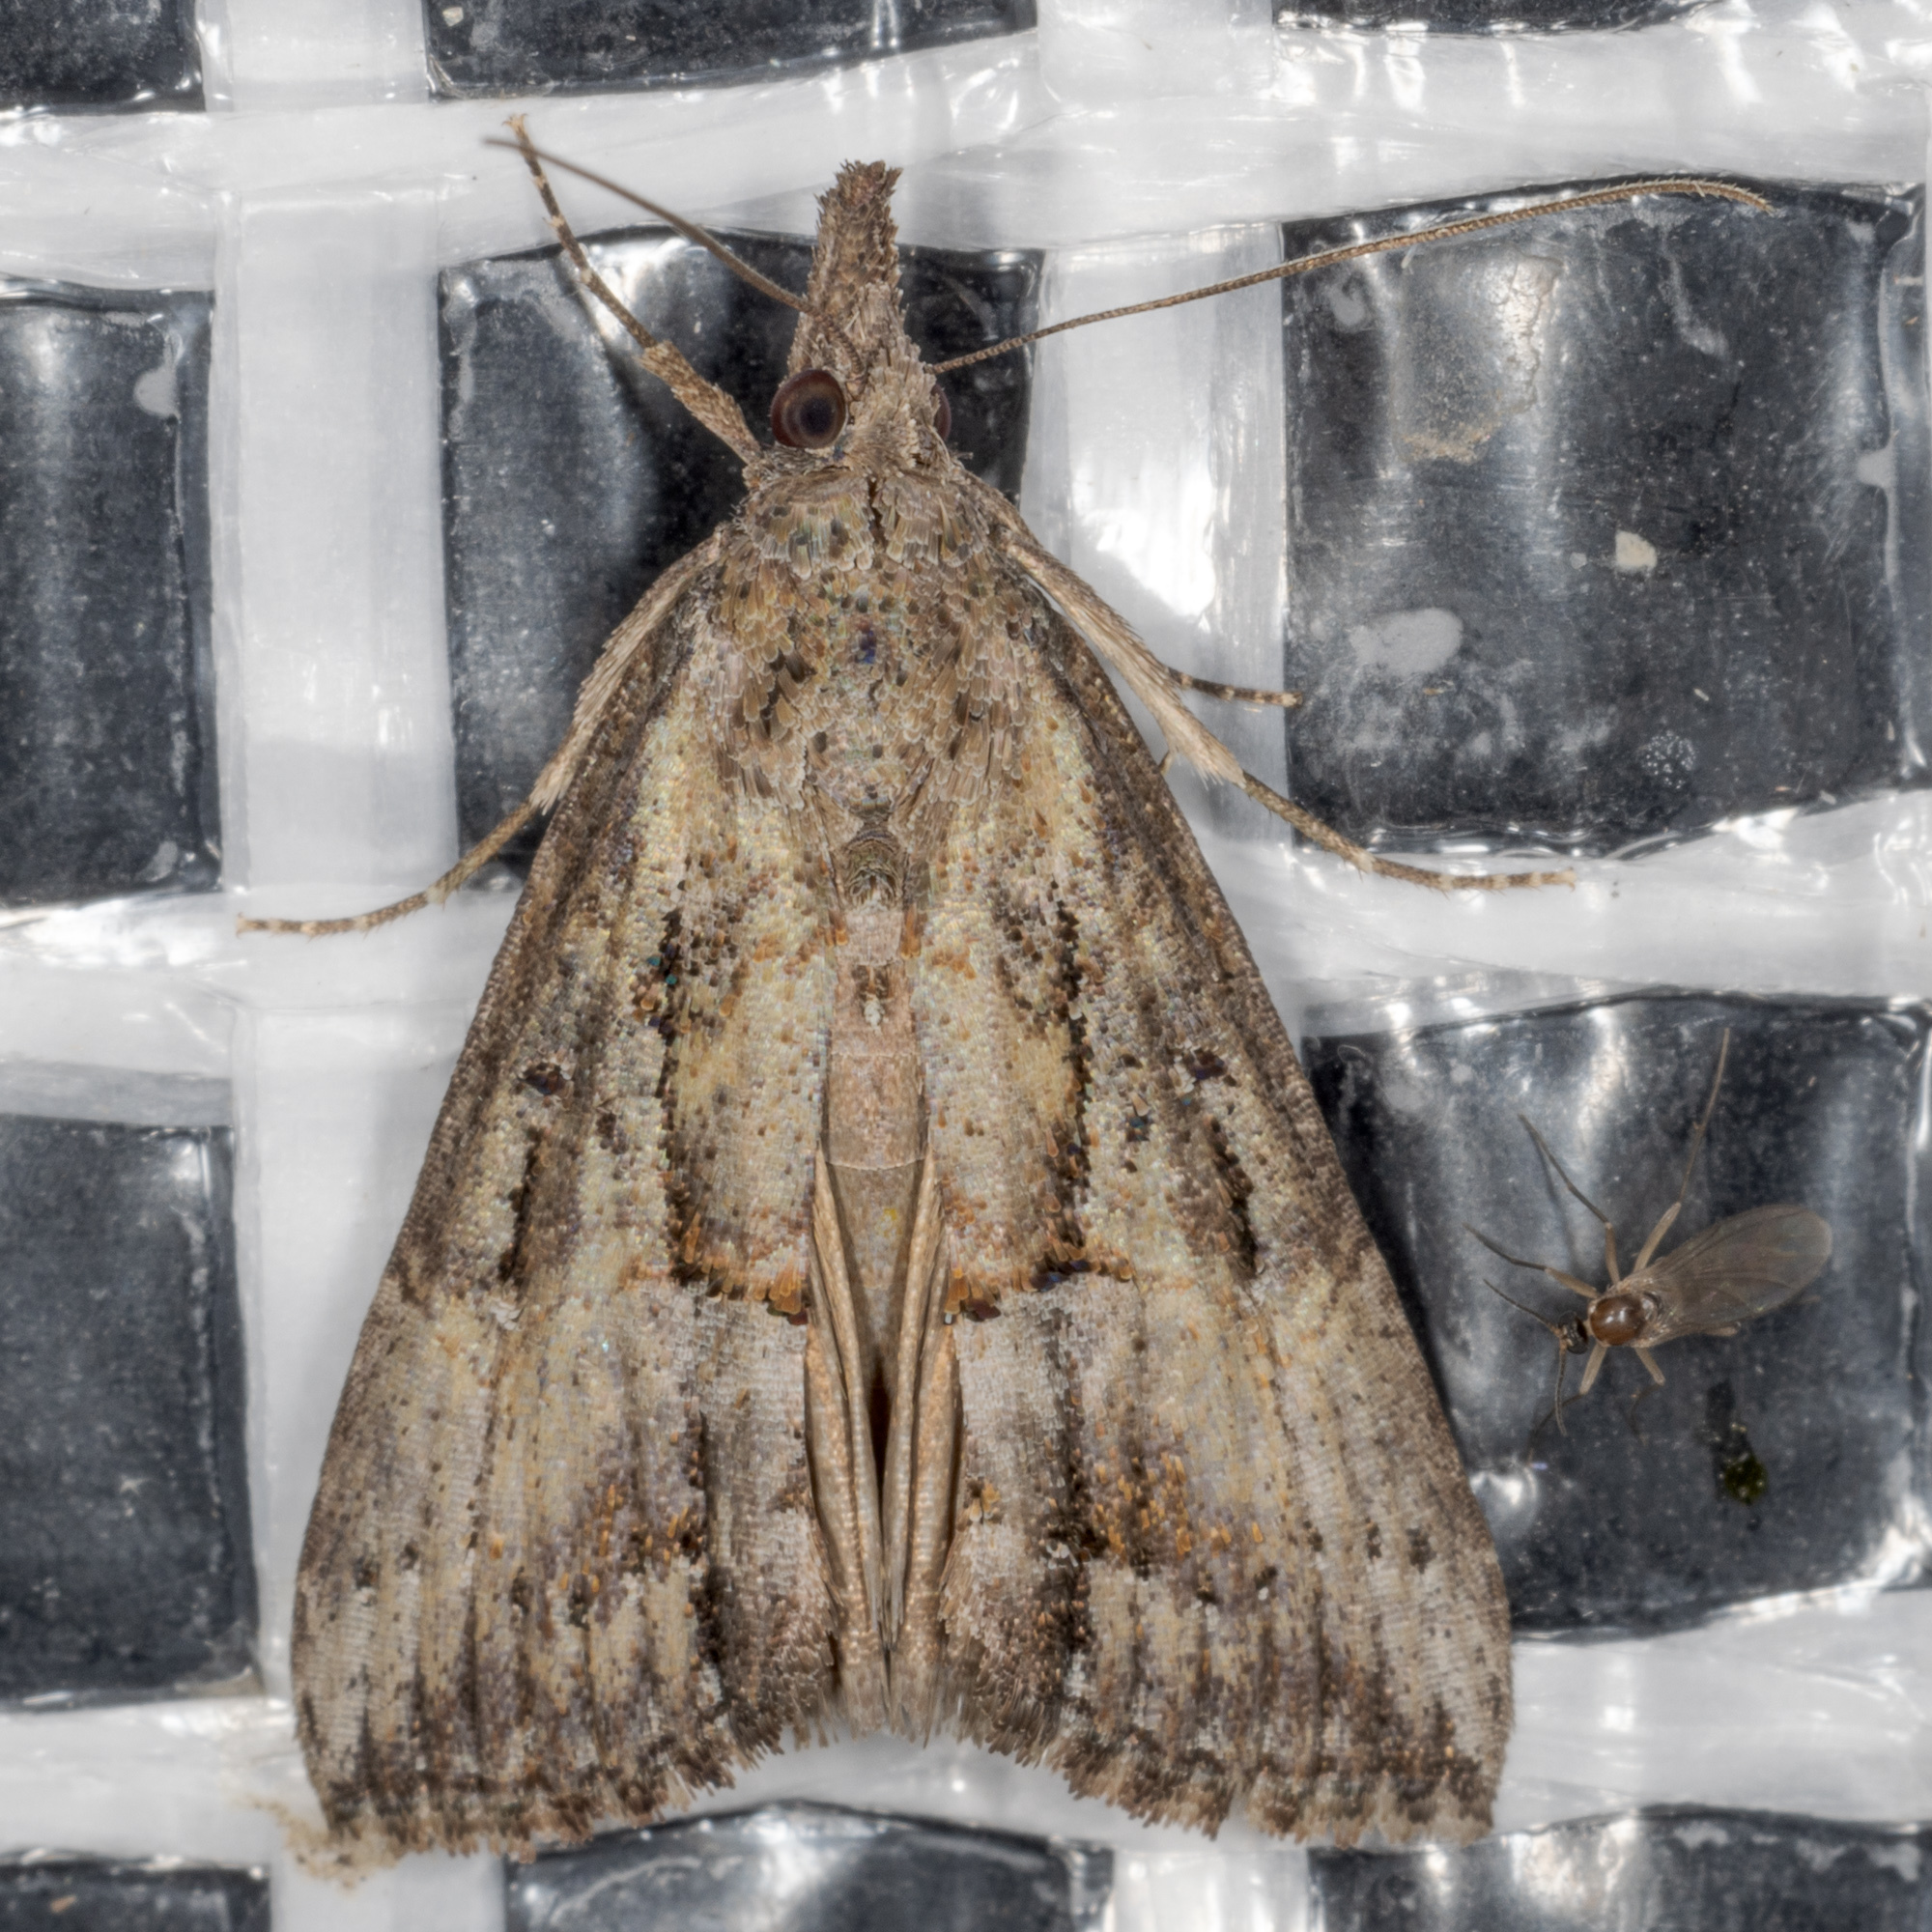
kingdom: Animalia
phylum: Arthropoda
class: Insecta
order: Lepidoptera
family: Erebidae
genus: Hypena
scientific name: Hypena scabra
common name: Green cloverworm
